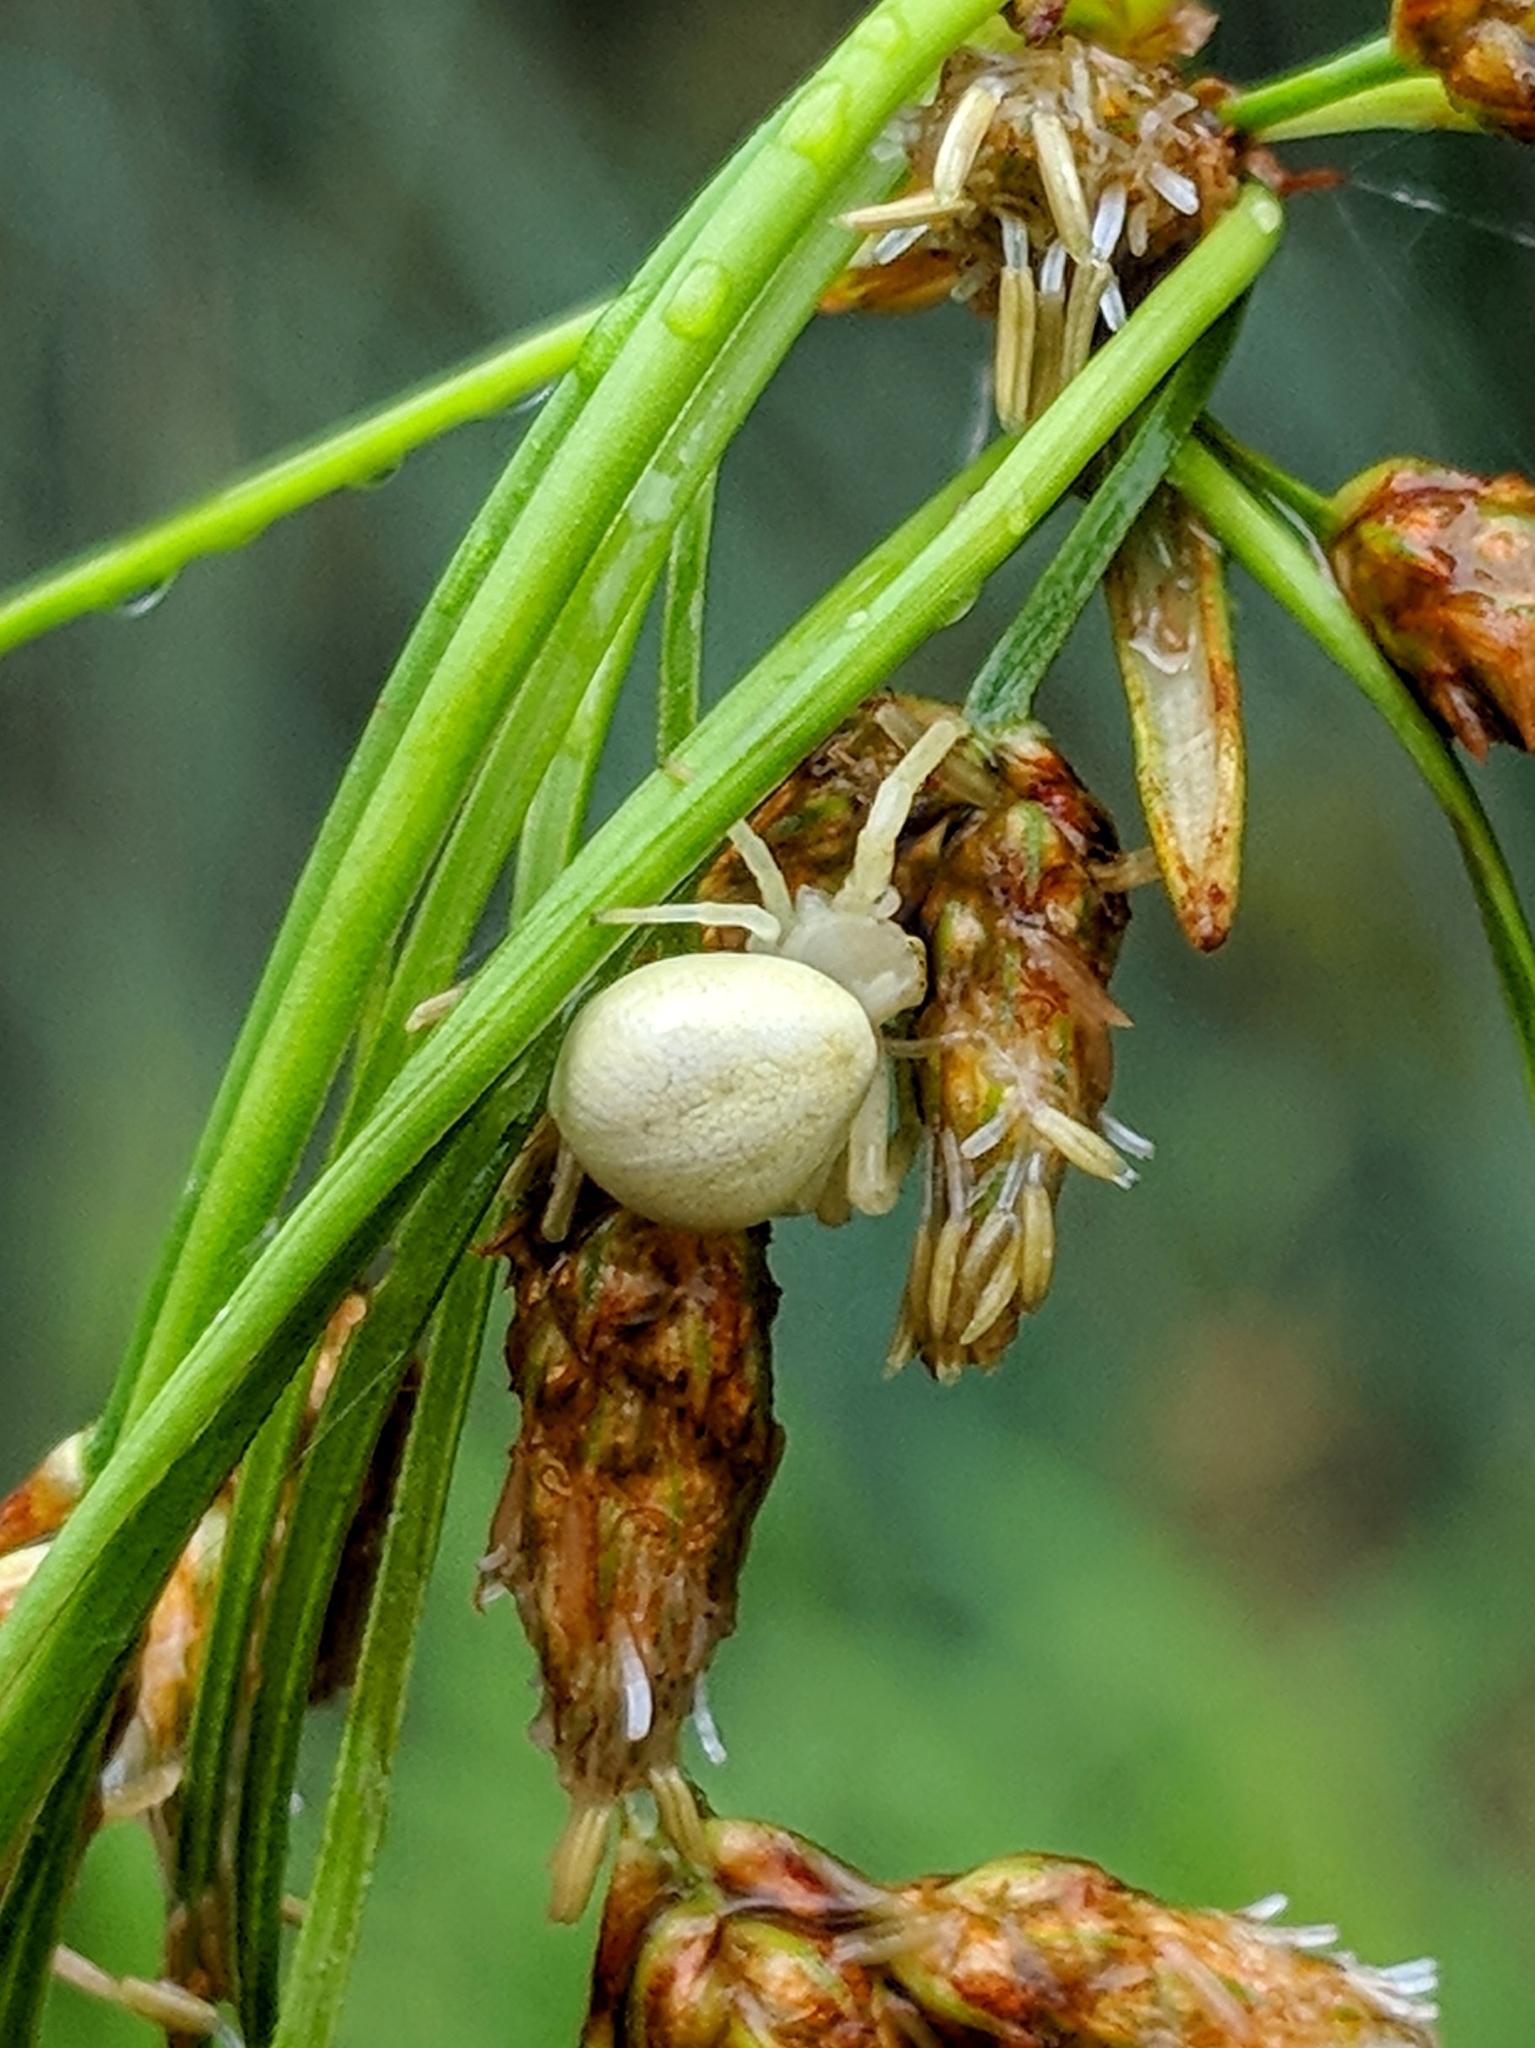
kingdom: Animalia
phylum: Arthropoda
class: Arachnida
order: Araneae
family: Thomisidae
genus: Misumena
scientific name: Misumena vatia
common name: Goldenrod crab spider
